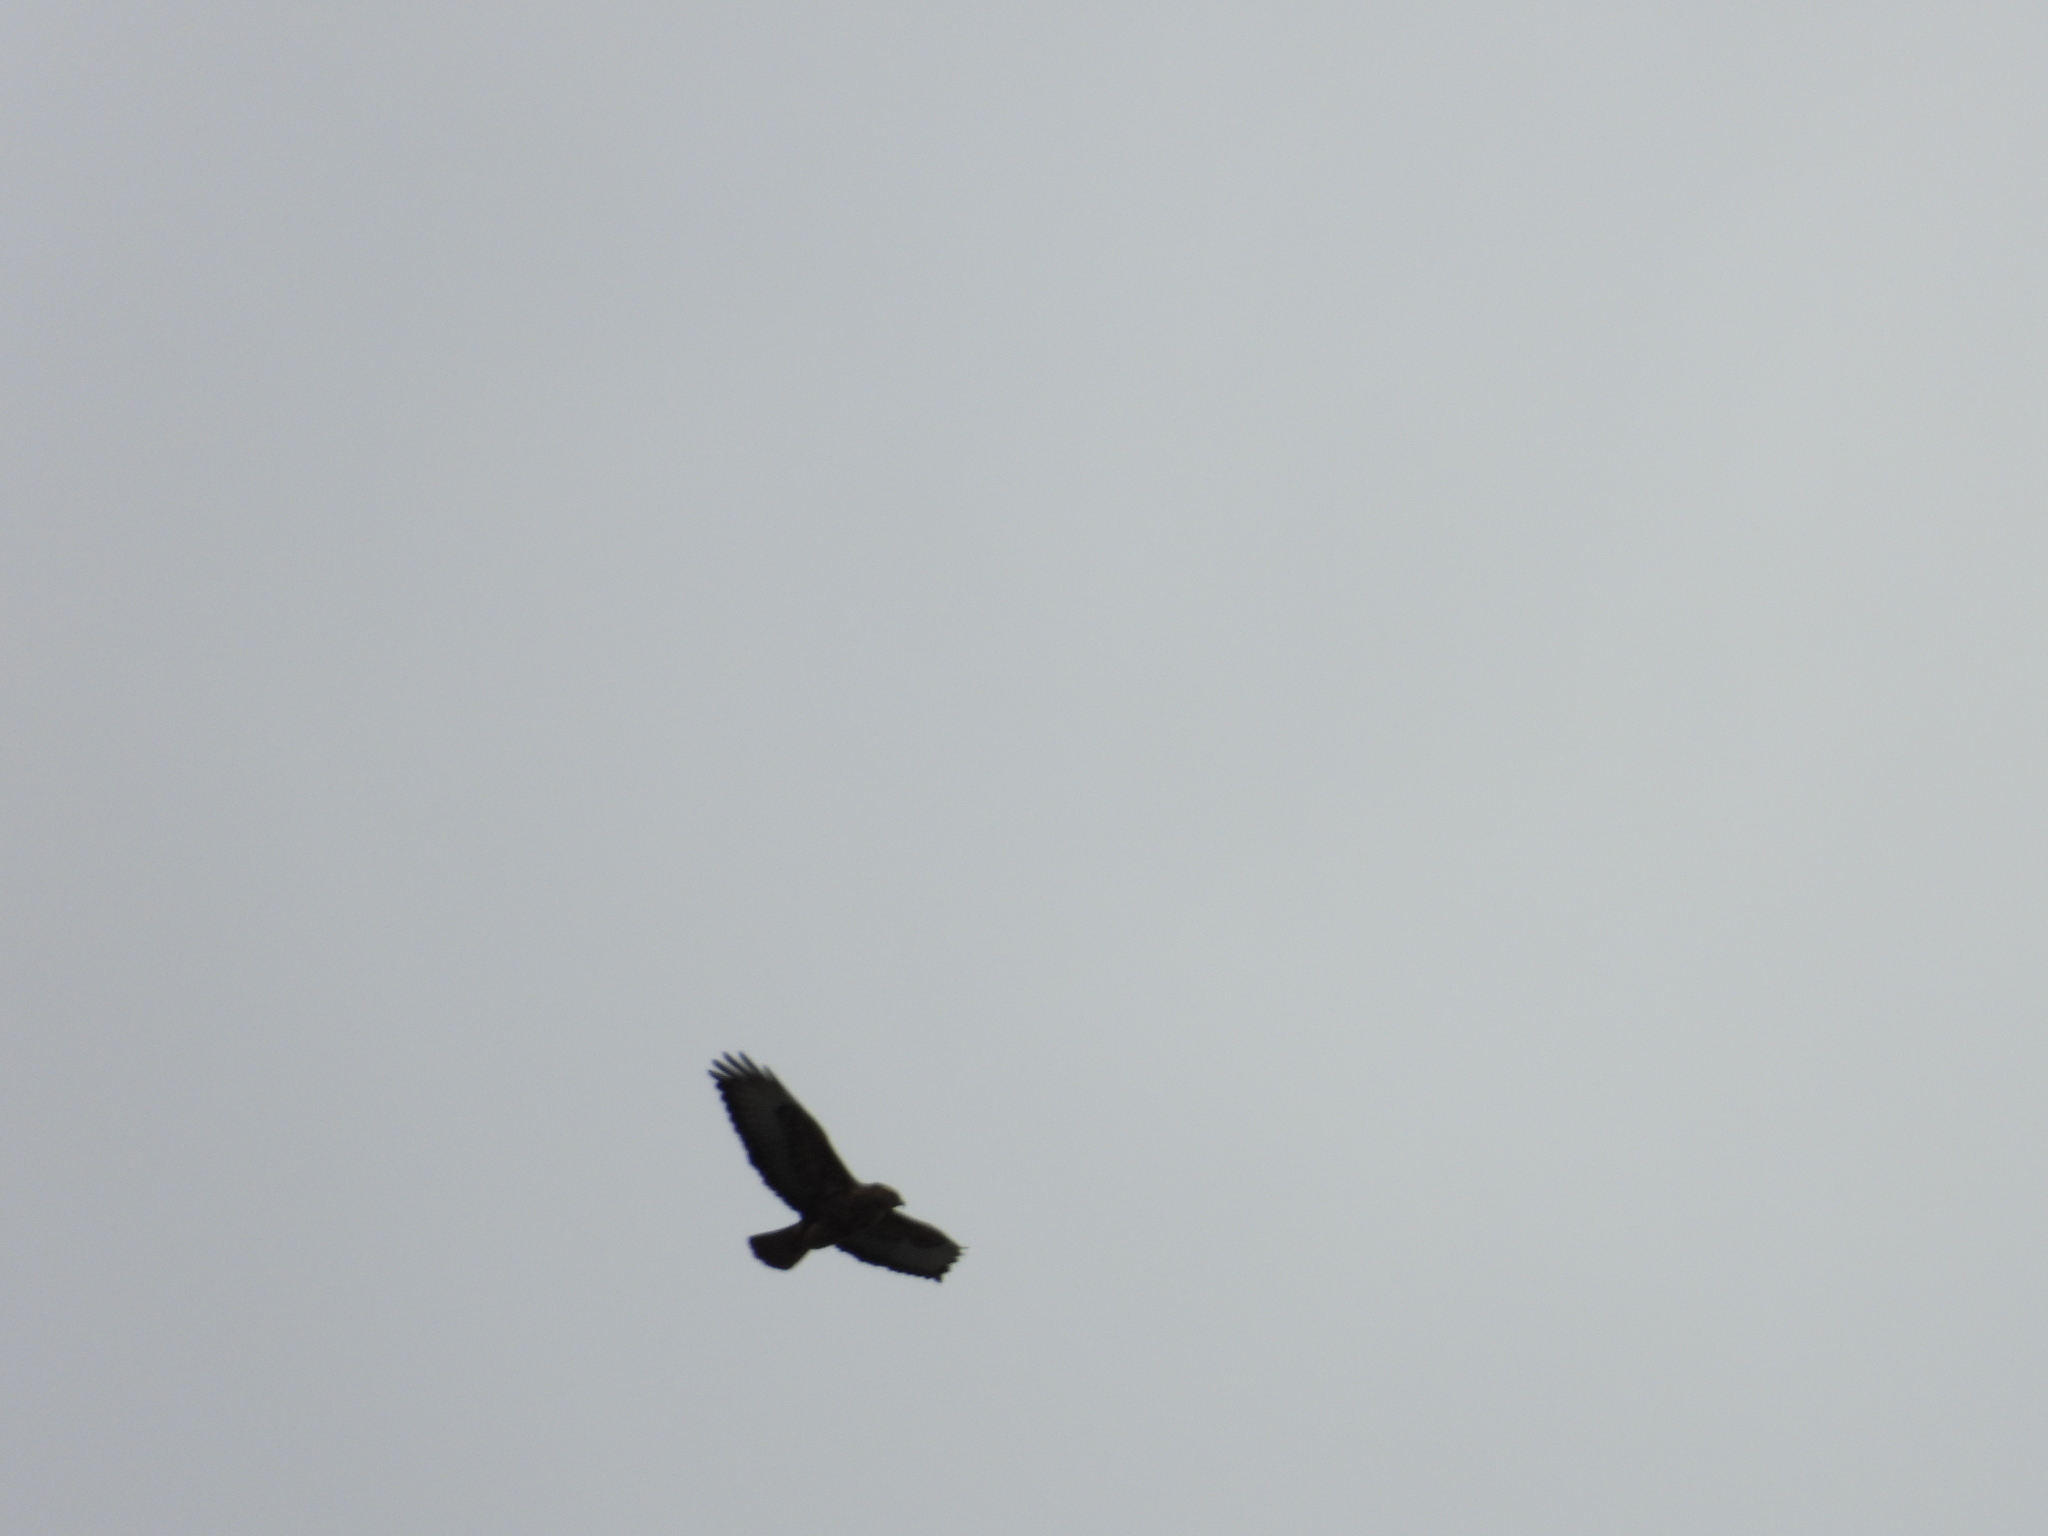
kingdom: Animalia
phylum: Chordata
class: Aves
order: Accipitriformes
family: Accipitridae
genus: Buteo
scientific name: Buteo buteo
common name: Common buzzard
